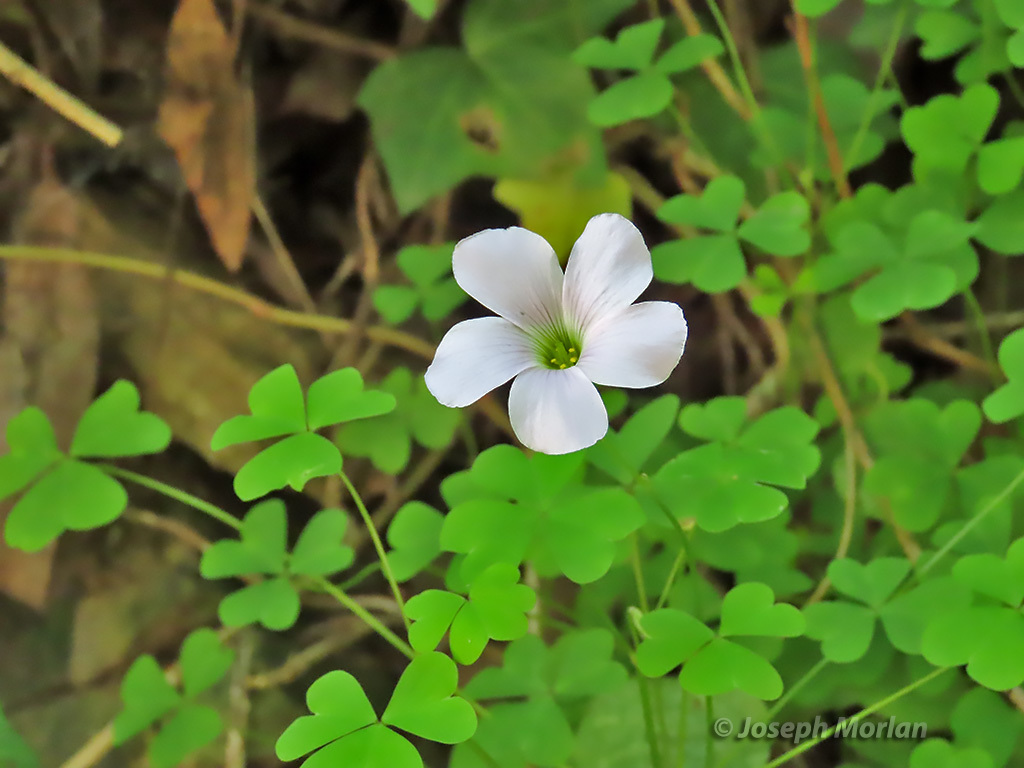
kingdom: Plantae
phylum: Tracheophyta
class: Magnoliopsida
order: Oxalidales
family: Oxalidaceae
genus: Oxalis
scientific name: Oxalis incarnata
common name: Pale pink-sorrel
